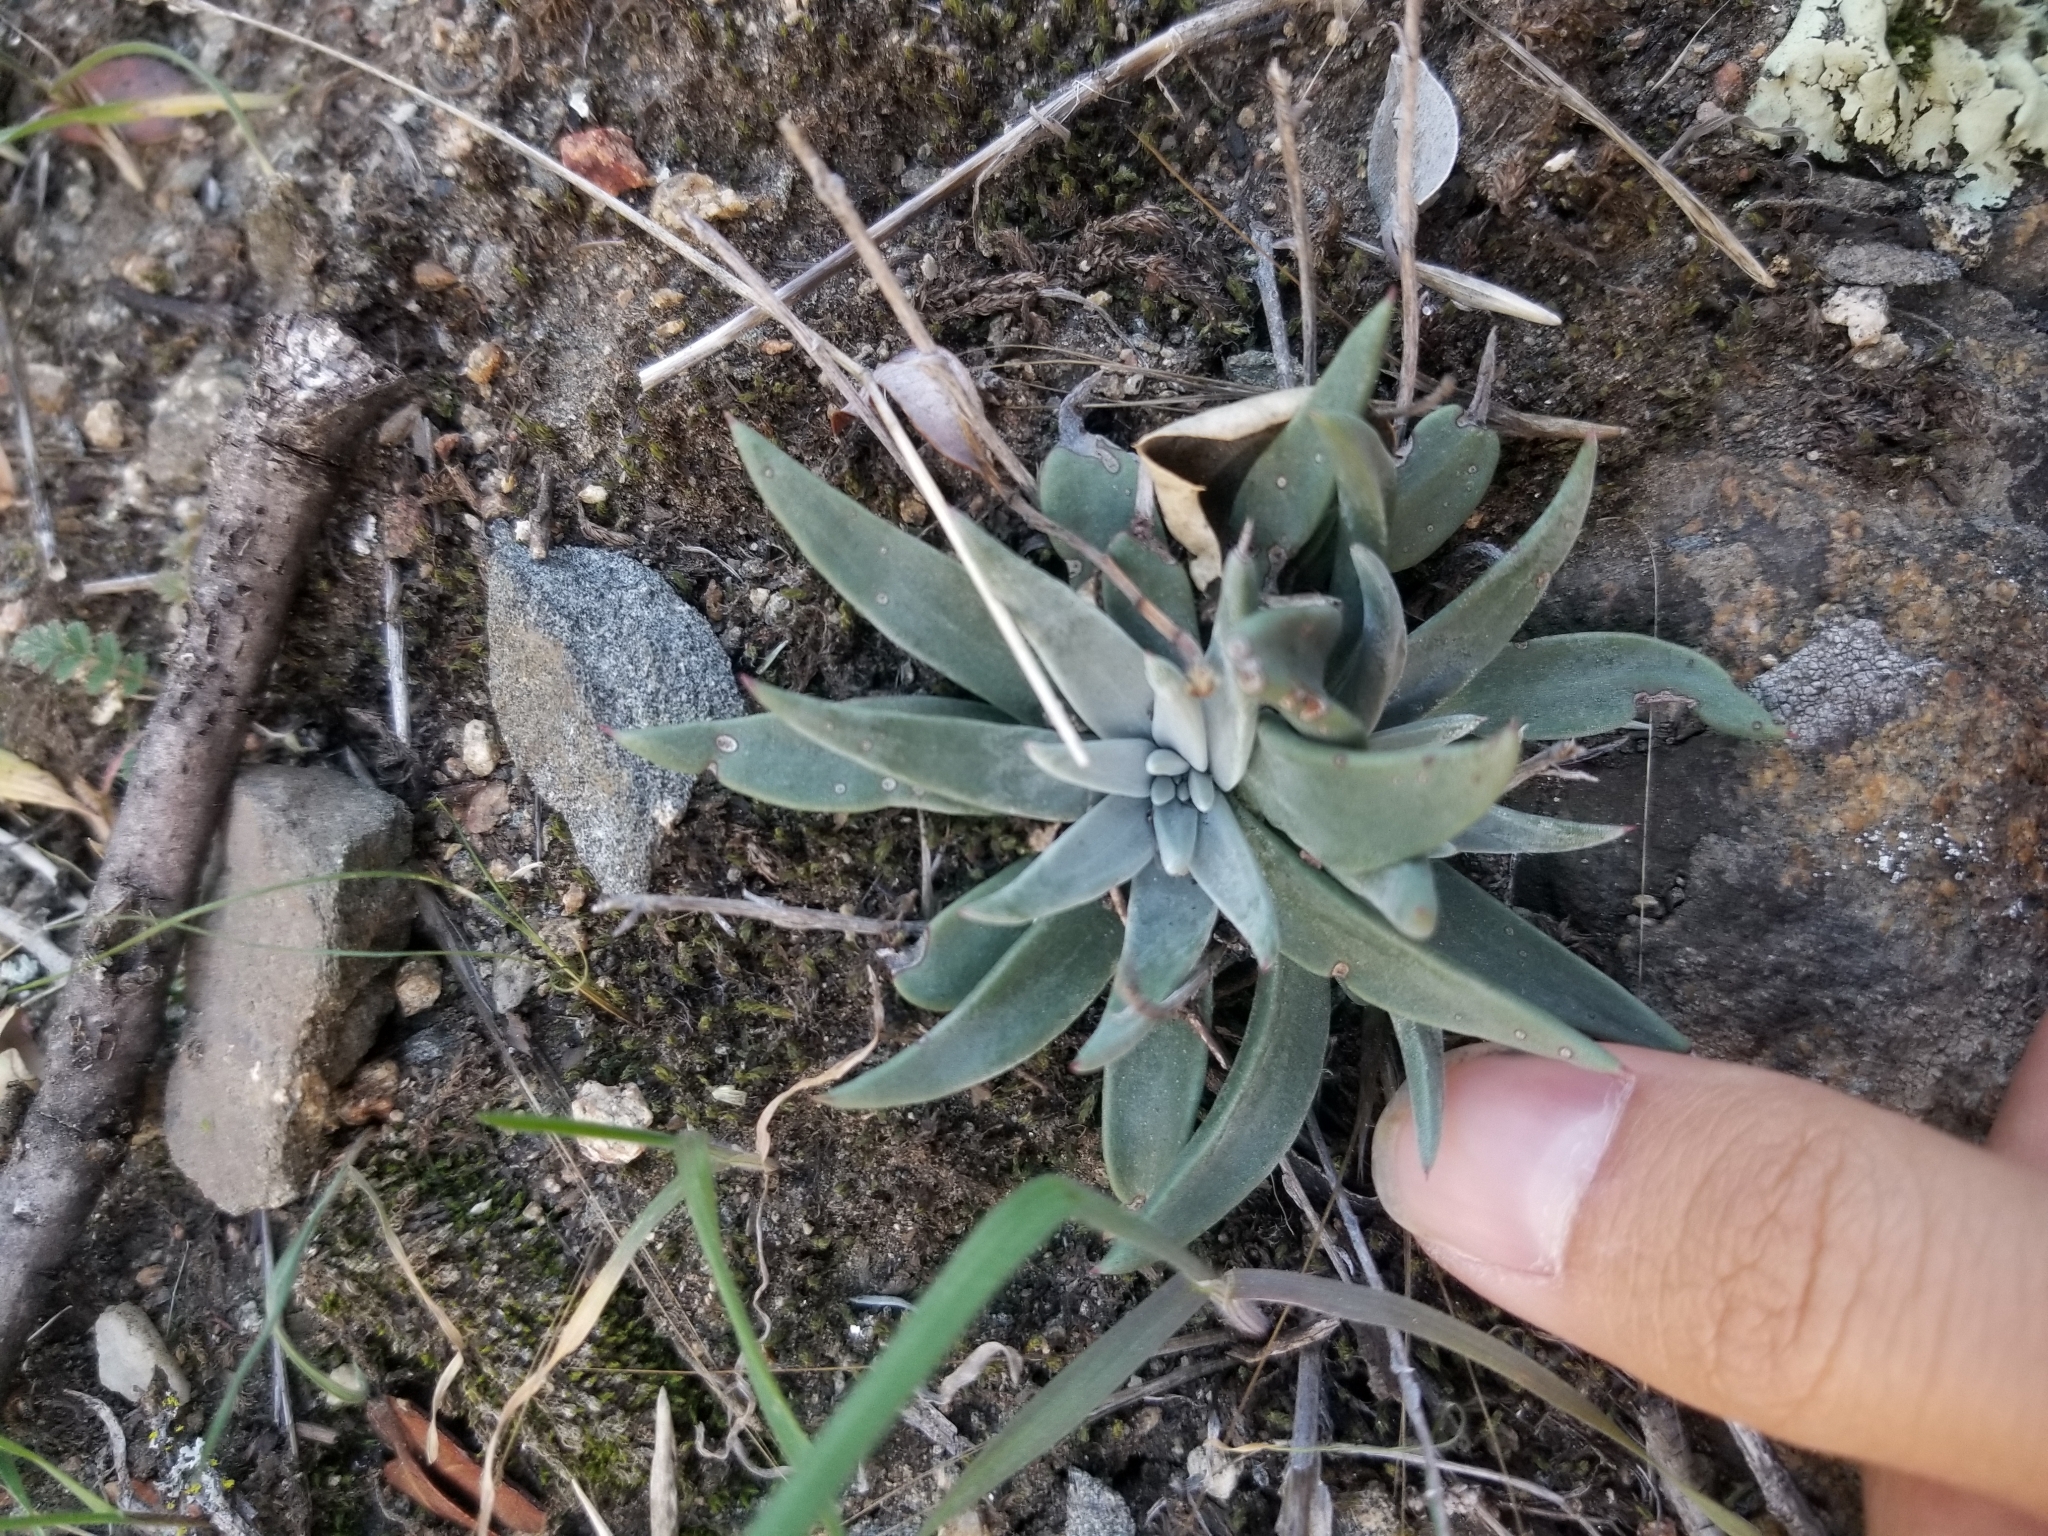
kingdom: Plantae
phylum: Tracheophyta
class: Magnoliopsida
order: Saxifragales
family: Crassulaceae
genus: Dudleya
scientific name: Dudleya abramsii
